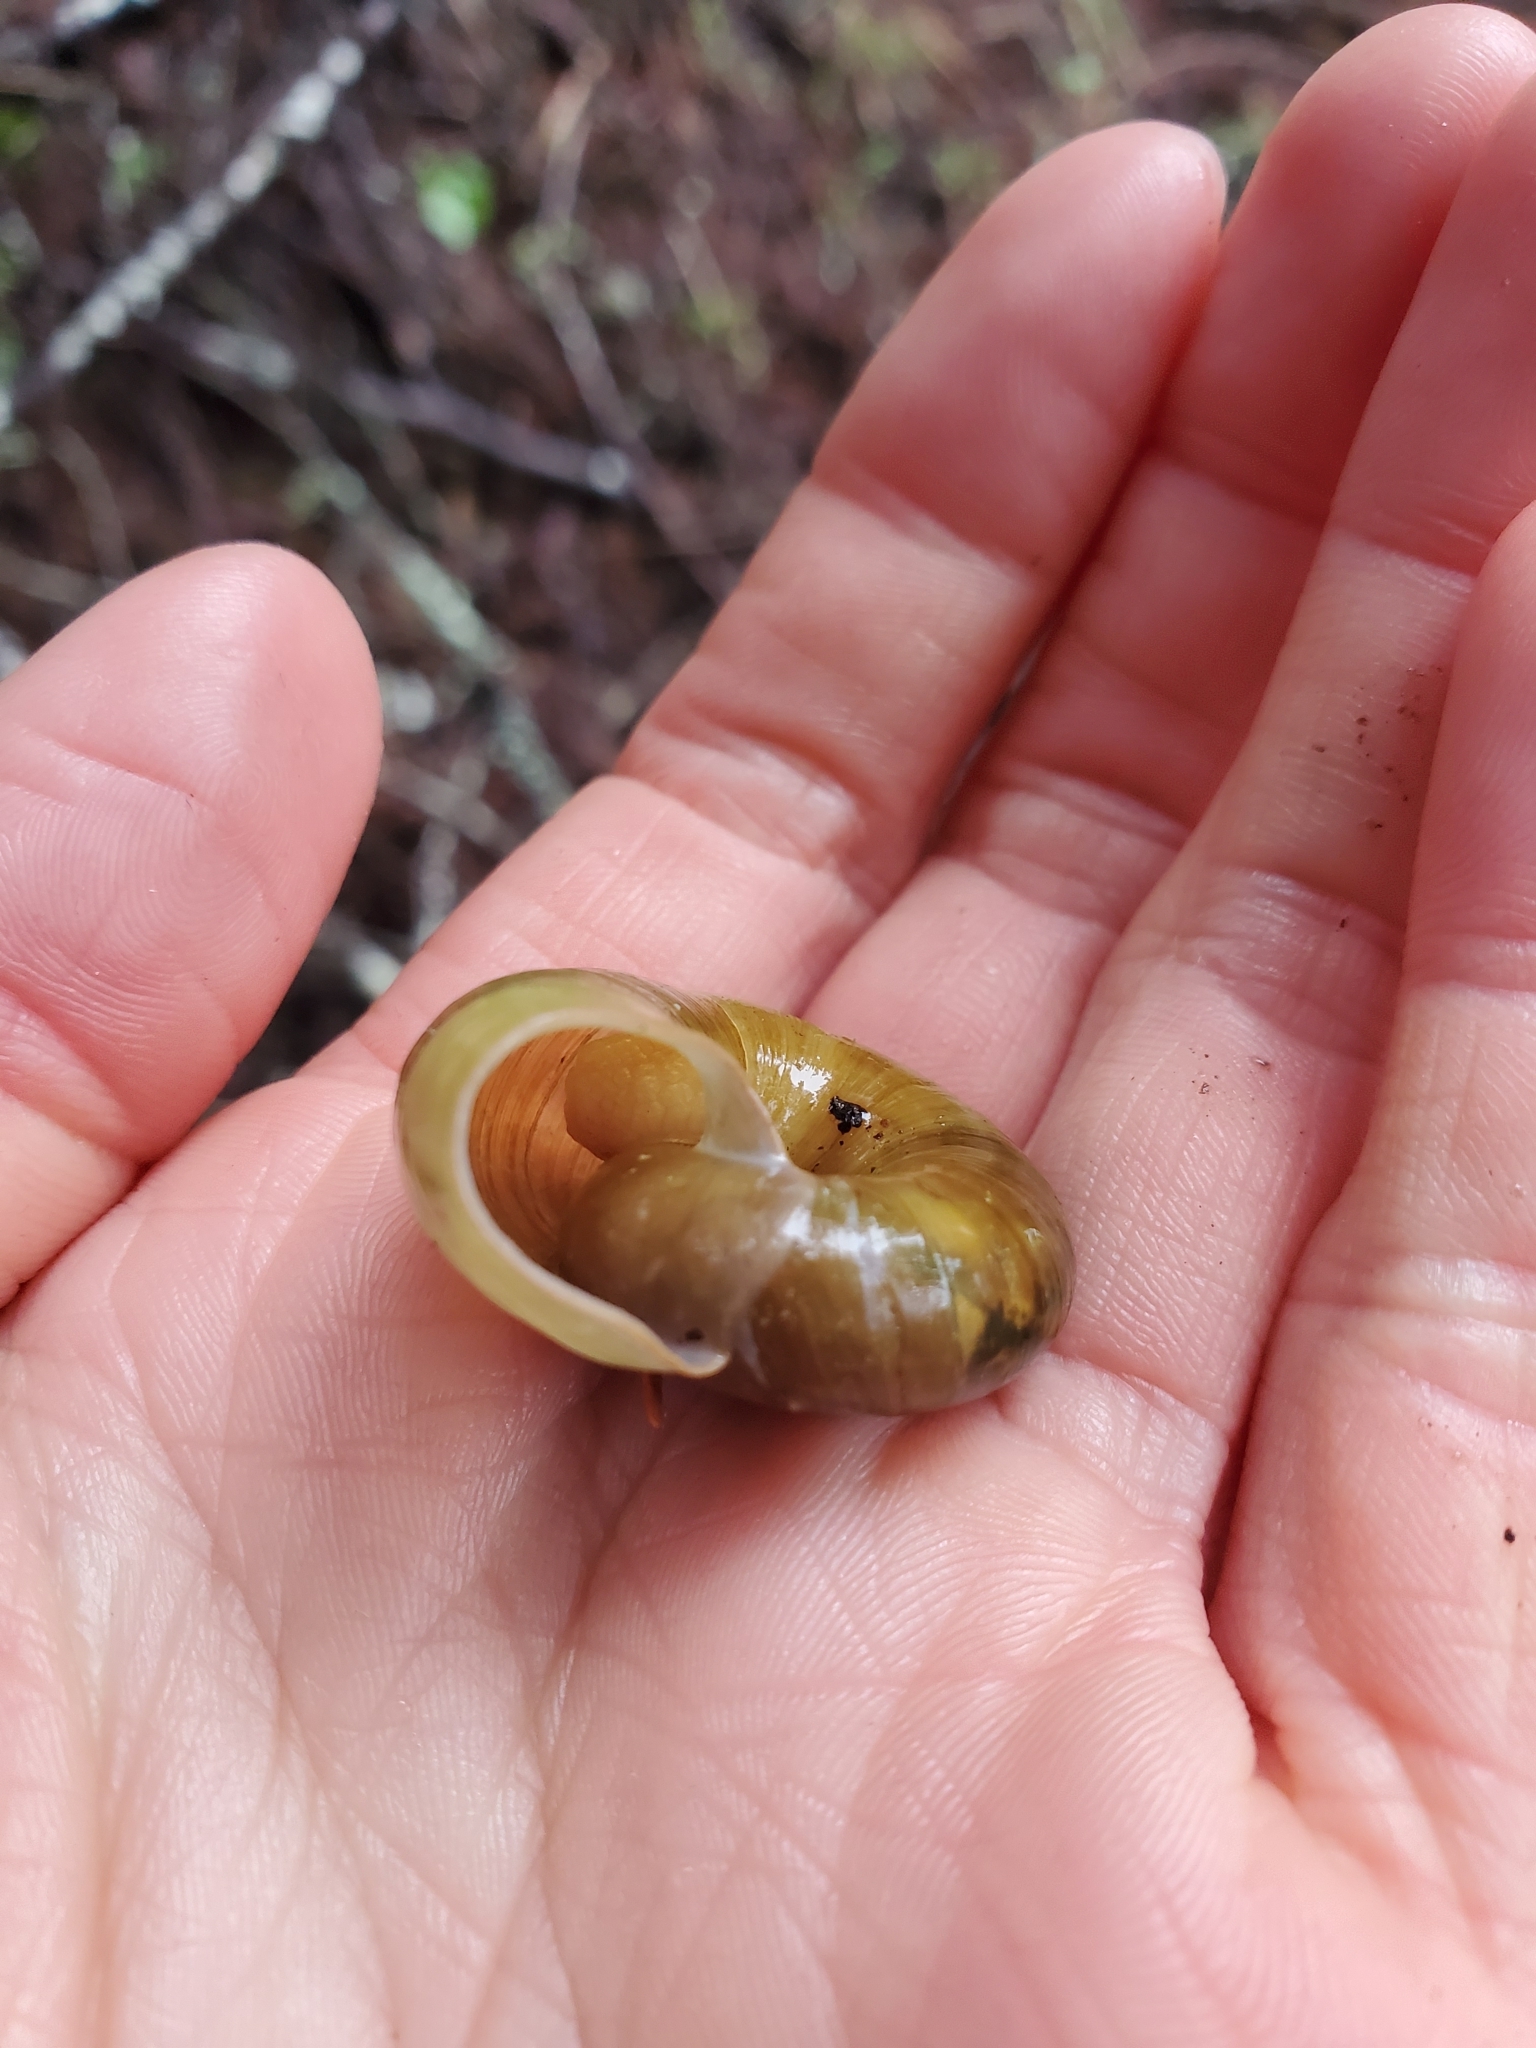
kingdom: Animalia
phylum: Mollusca
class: Gastropoda
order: Stylommatophora
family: Haplotrematidae
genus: Haplotrema
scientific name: Haplotrema vancouverense
